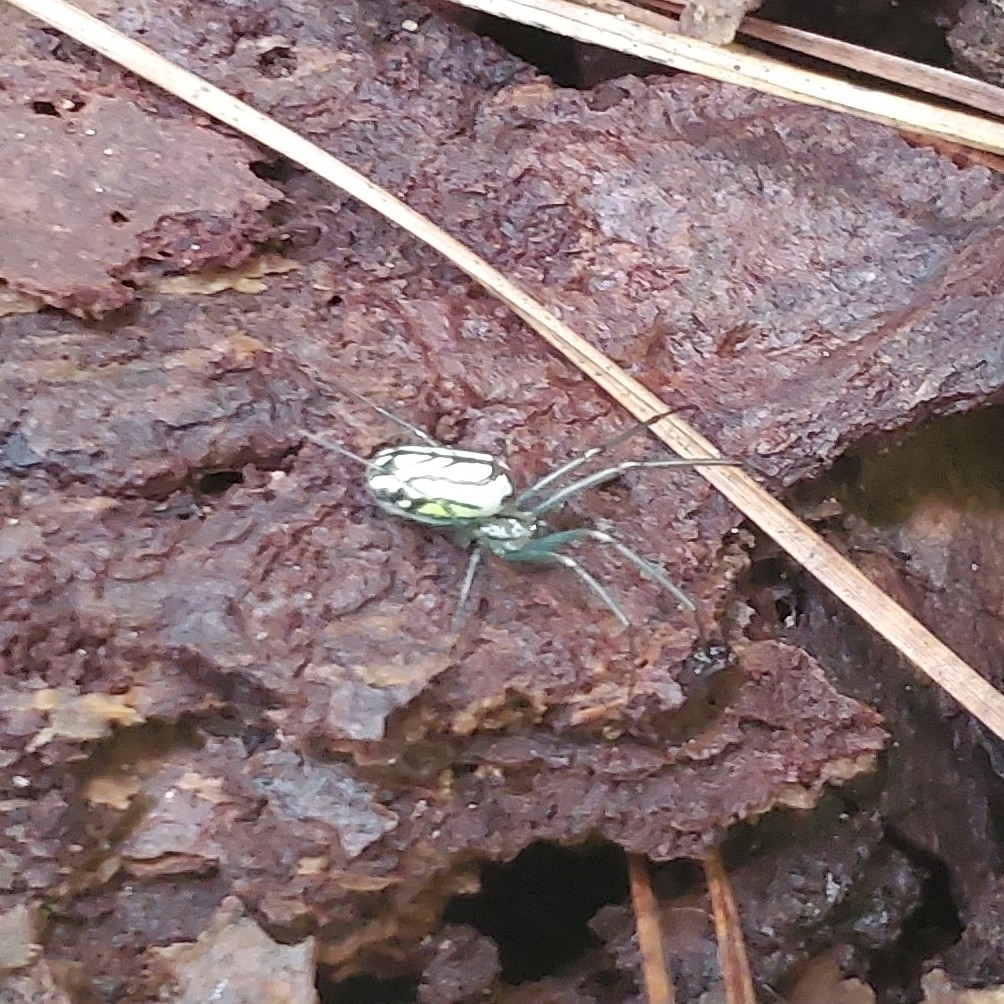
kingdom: Animalia
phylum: Arthropoda
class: Arachnida
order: Araneae
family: Tetragnathidae
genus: Leucauge
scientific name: Leucauge venusta
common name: Longjawed orb weavers
